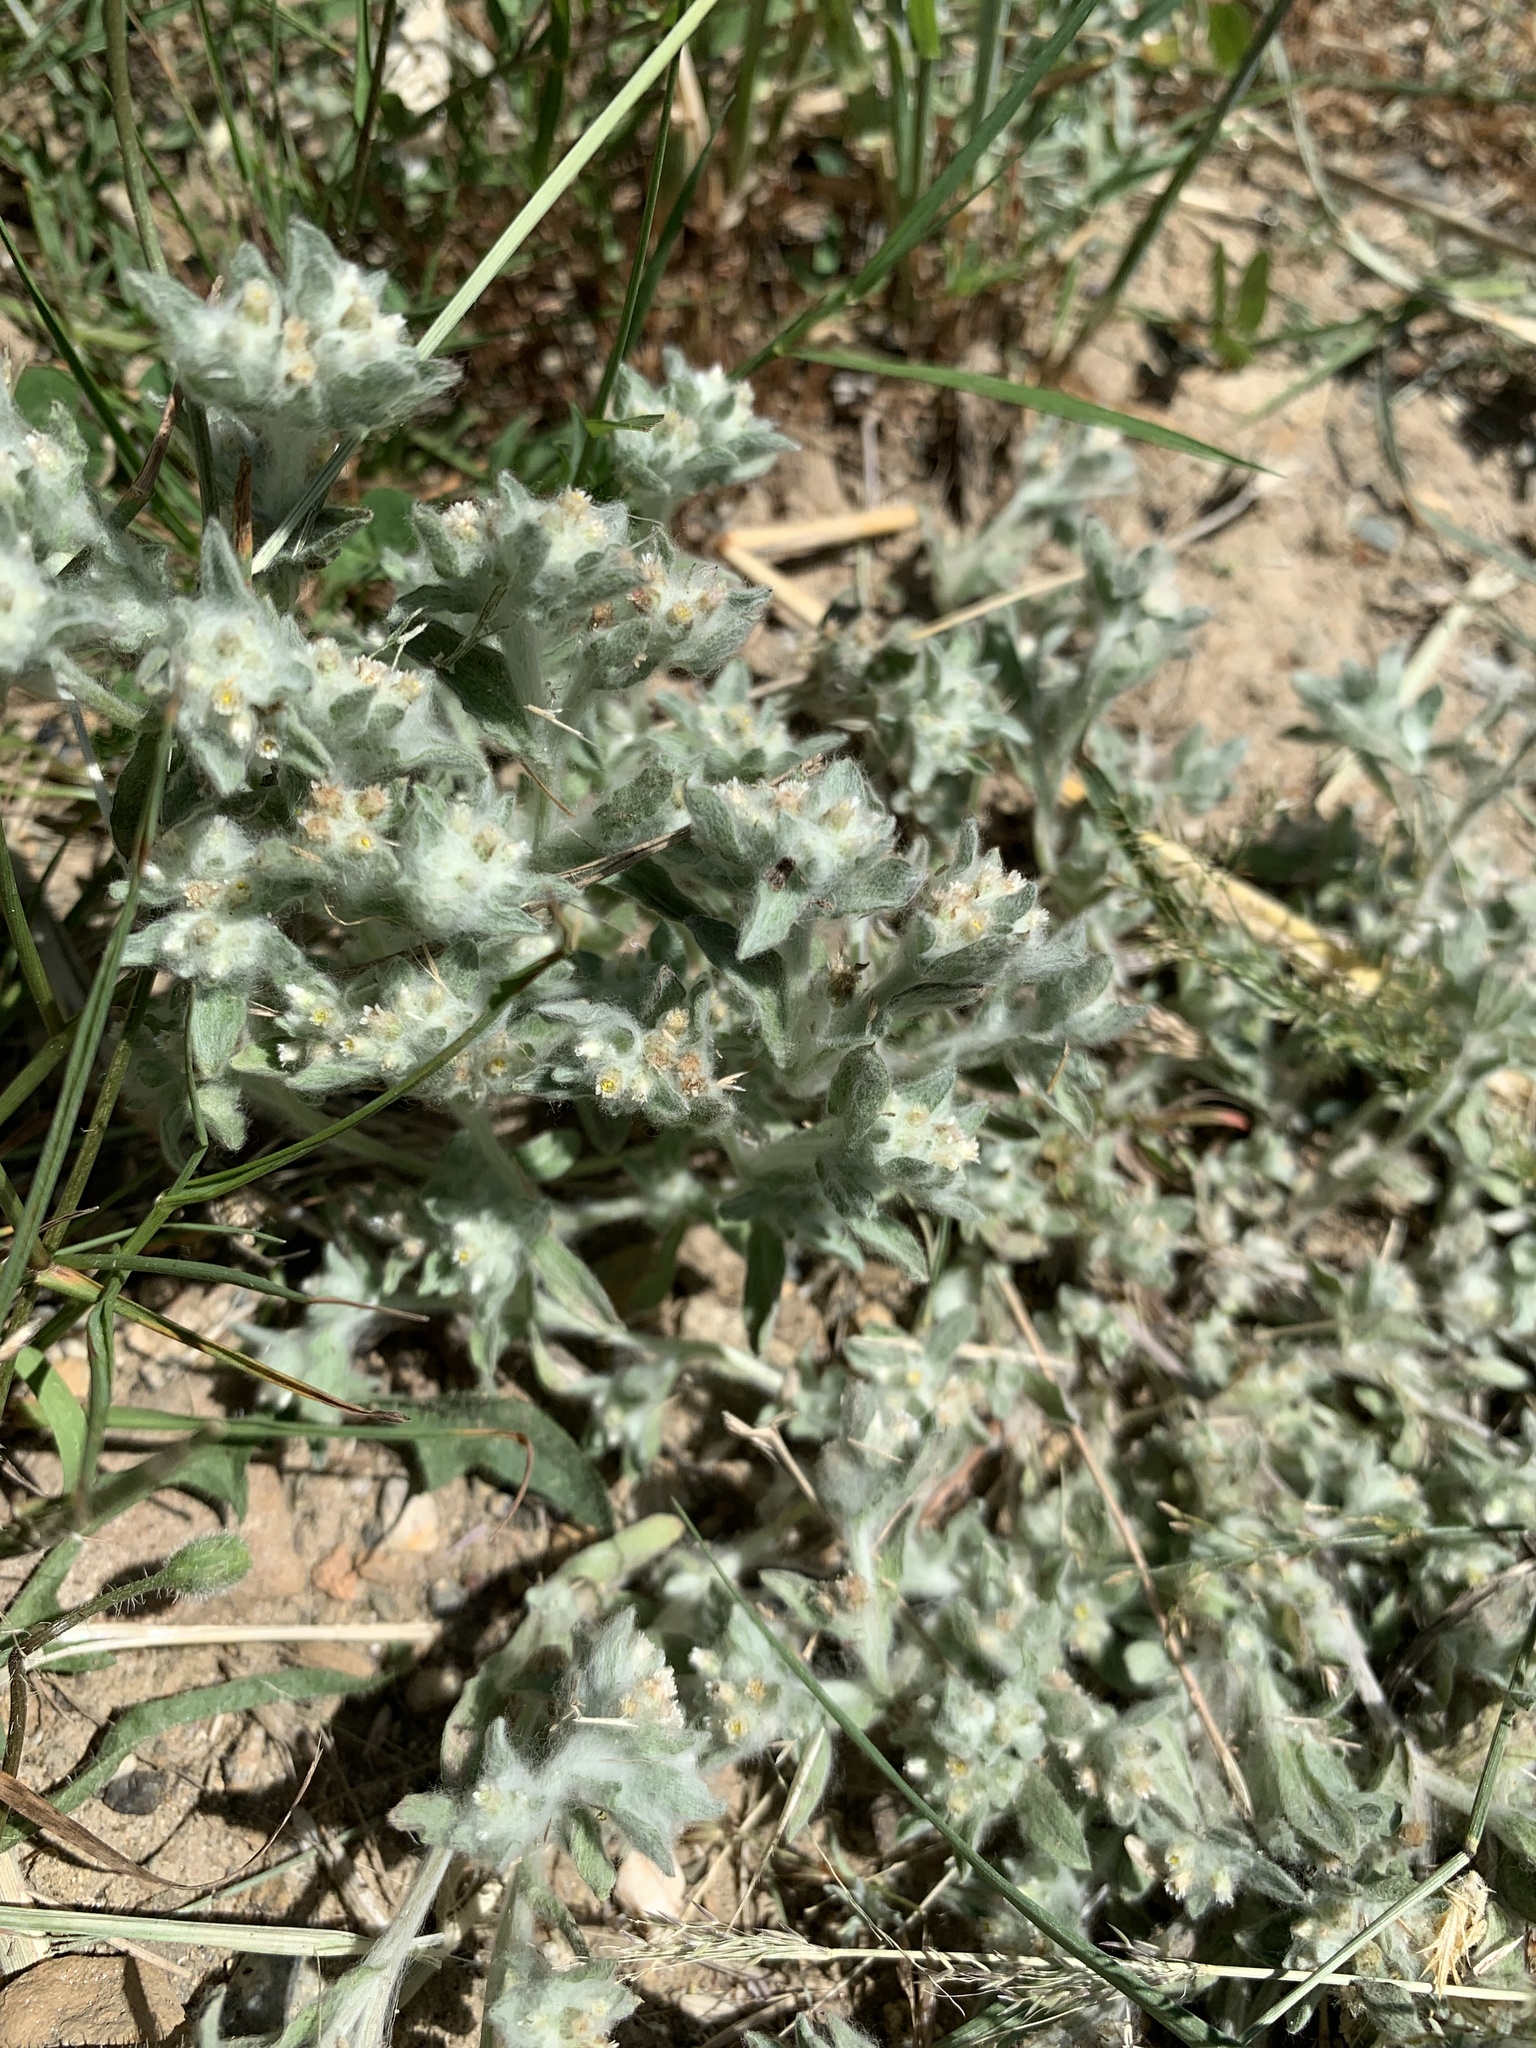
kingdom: Plantae
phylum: Tracheophyta
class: Magnoliopsida
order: Asterales
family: Asteraceae
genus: Gnaphalium
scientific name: Gnaphalium palustre
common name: Western marsh cudweed
